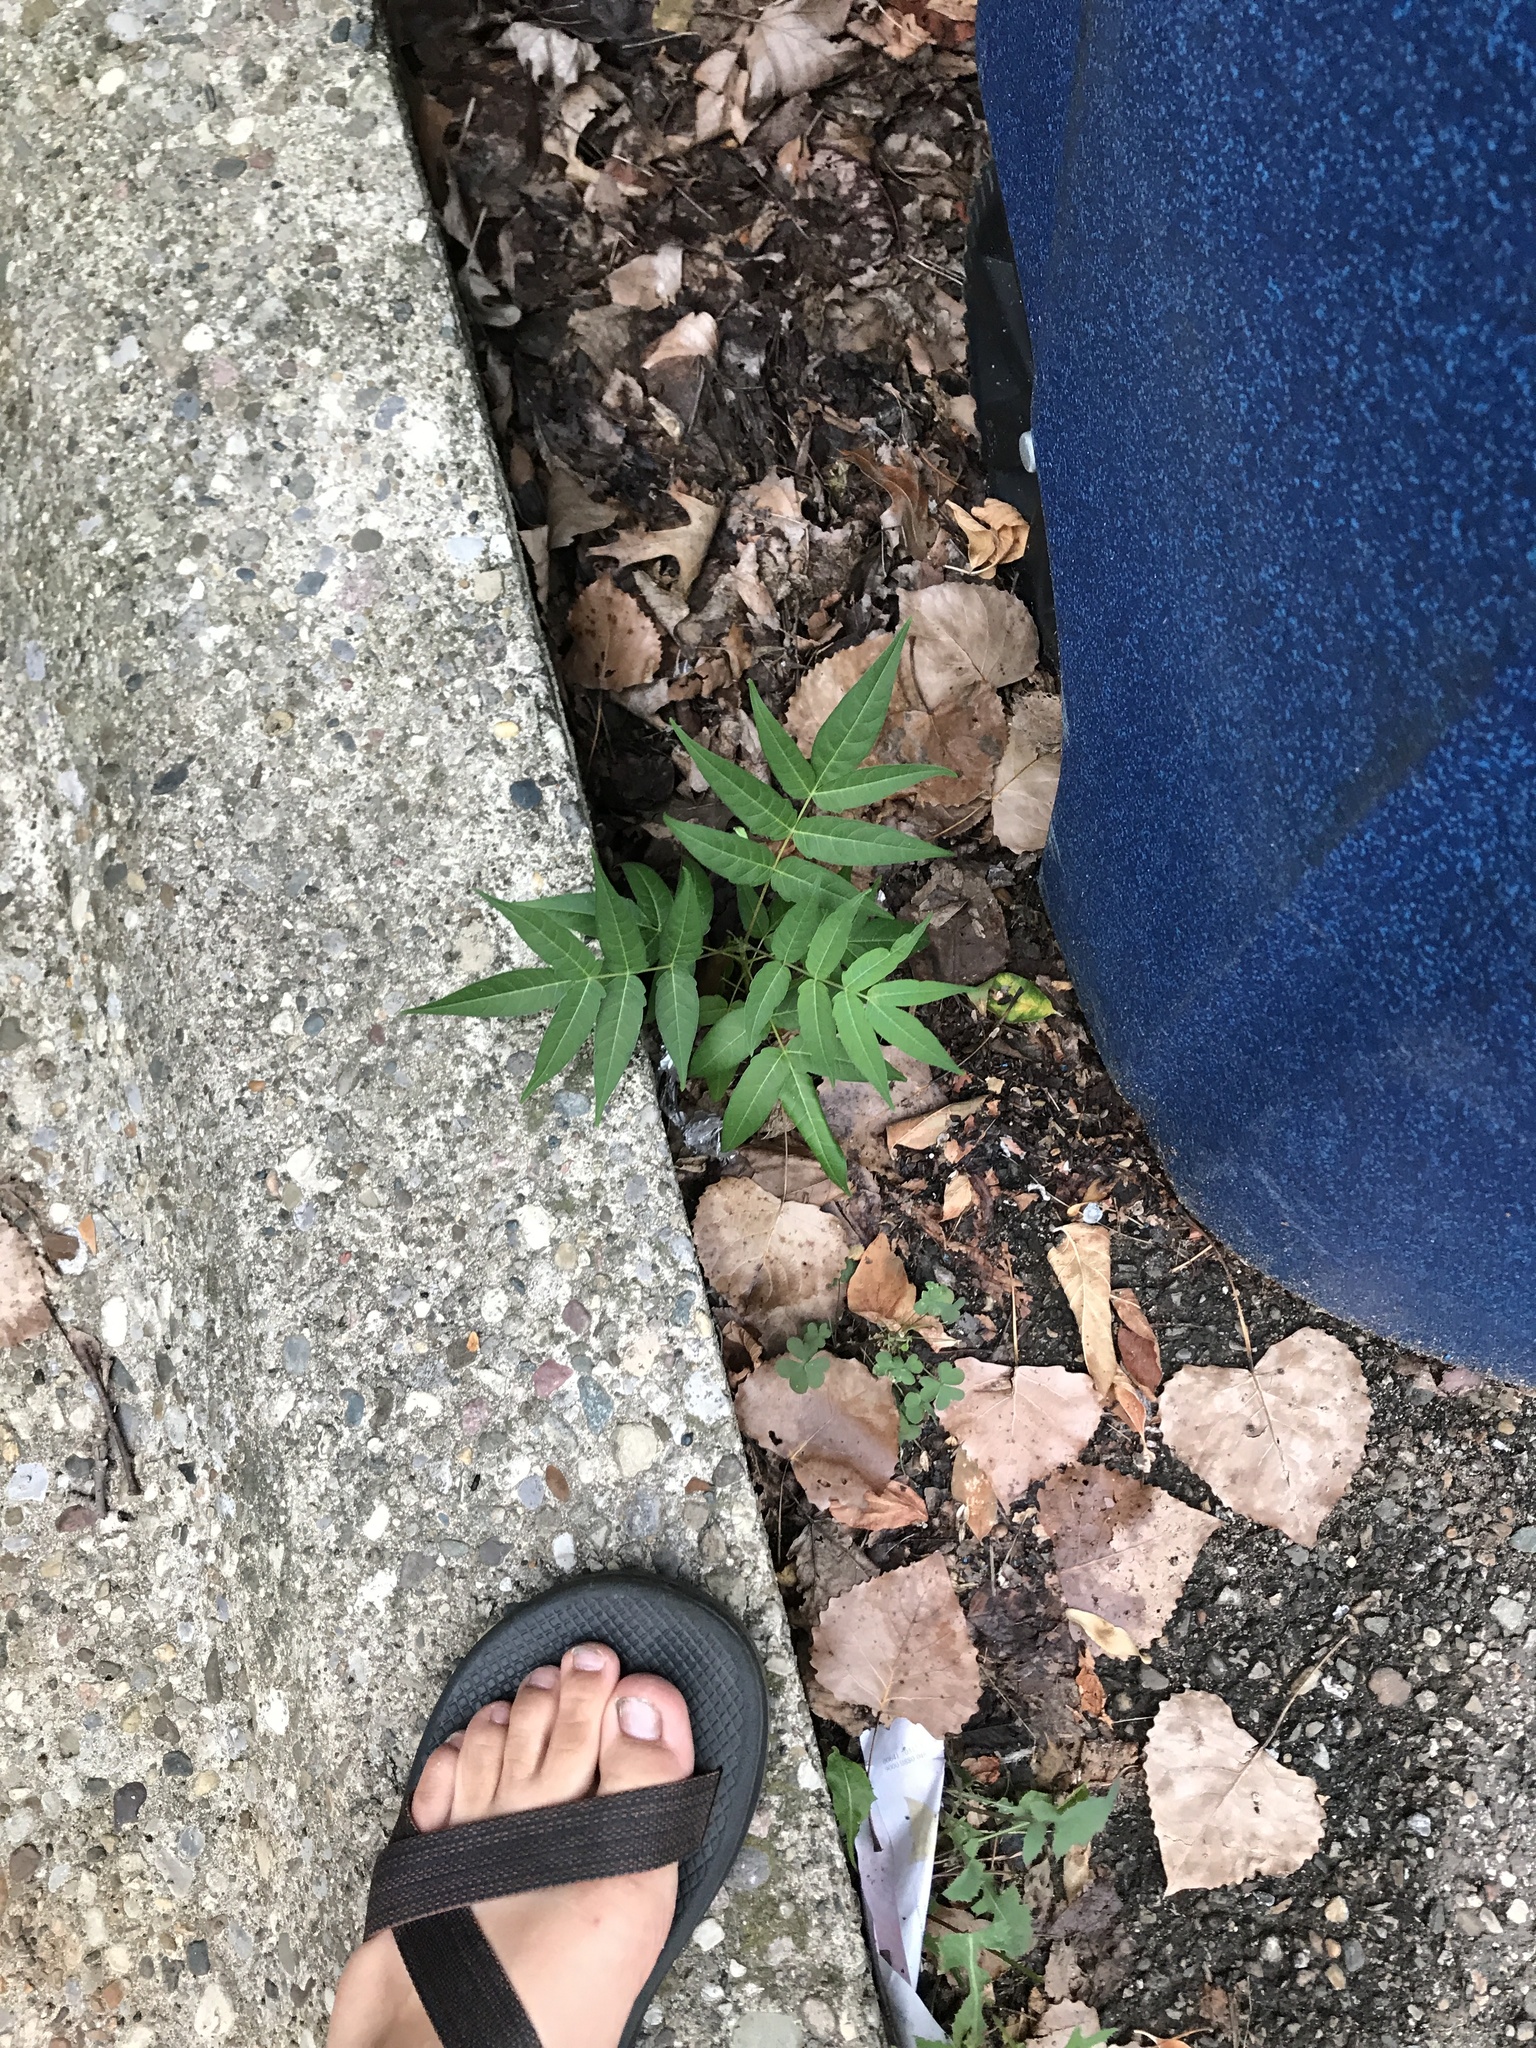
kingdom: Plantae
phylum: Tracheophyta
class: Magnoliopsida
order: Sapindales
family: Simaroubaceae
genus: Ailanthus
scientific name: Ailanthus altissima
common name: Tree-of-heaven
